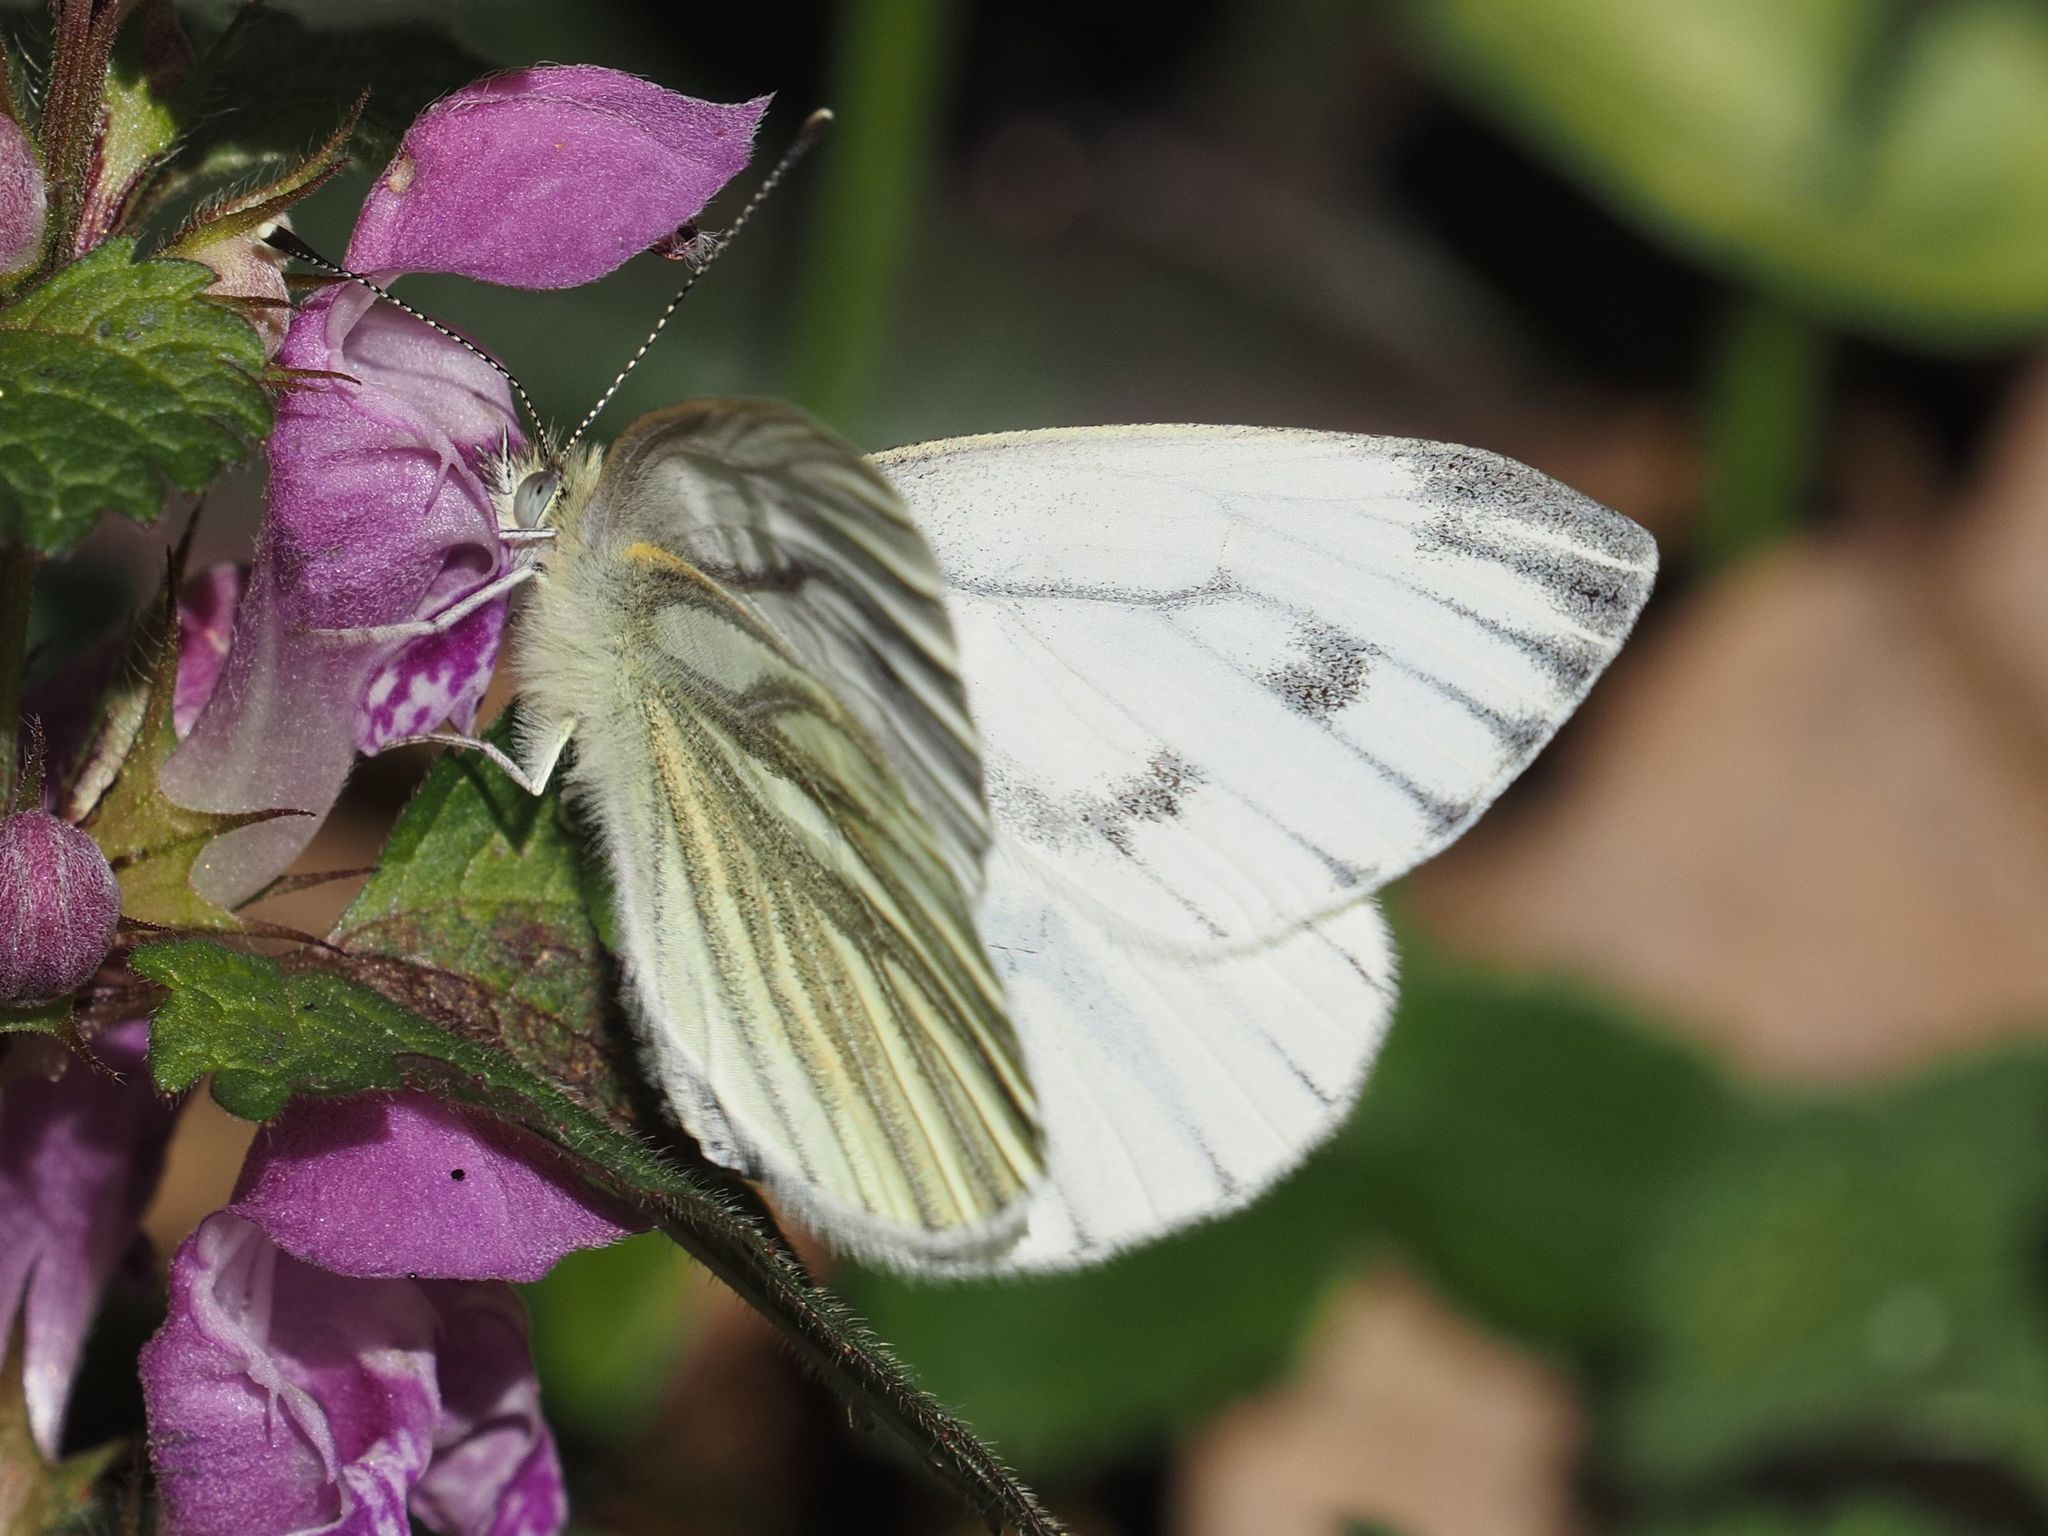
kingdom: Animalia
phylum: Arthropoda
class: Insecta
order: Lepidoptera
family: Pieridae
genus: Pieris
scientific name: Pieris napi
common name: Green-veined white
